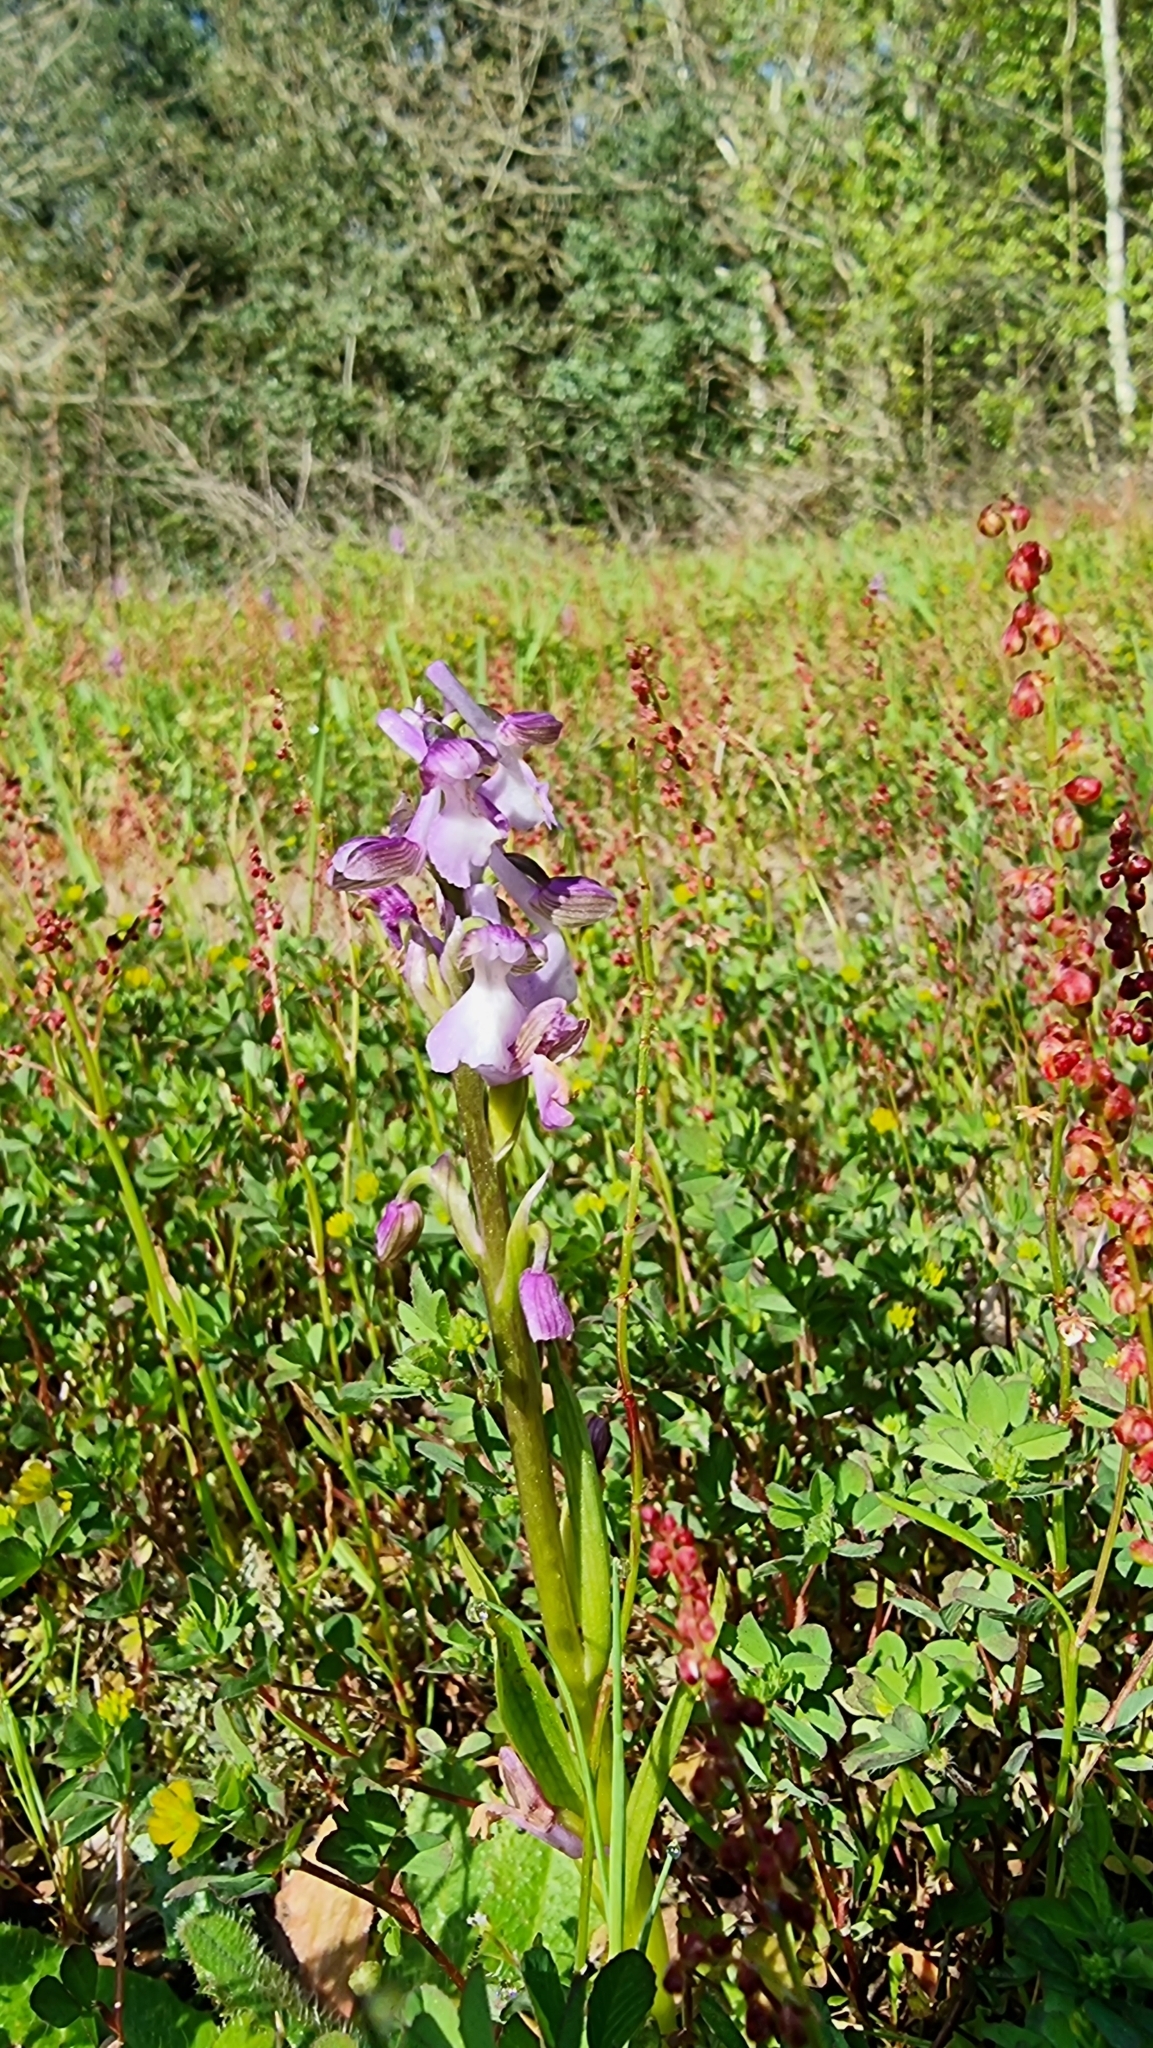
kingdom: Plantae
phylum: Tracheophyta
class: Liliopsida
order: Asparagales
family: Orchidaceae
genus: Anacamptis
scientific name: Anacamptis morio
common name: Green-winged orchid
